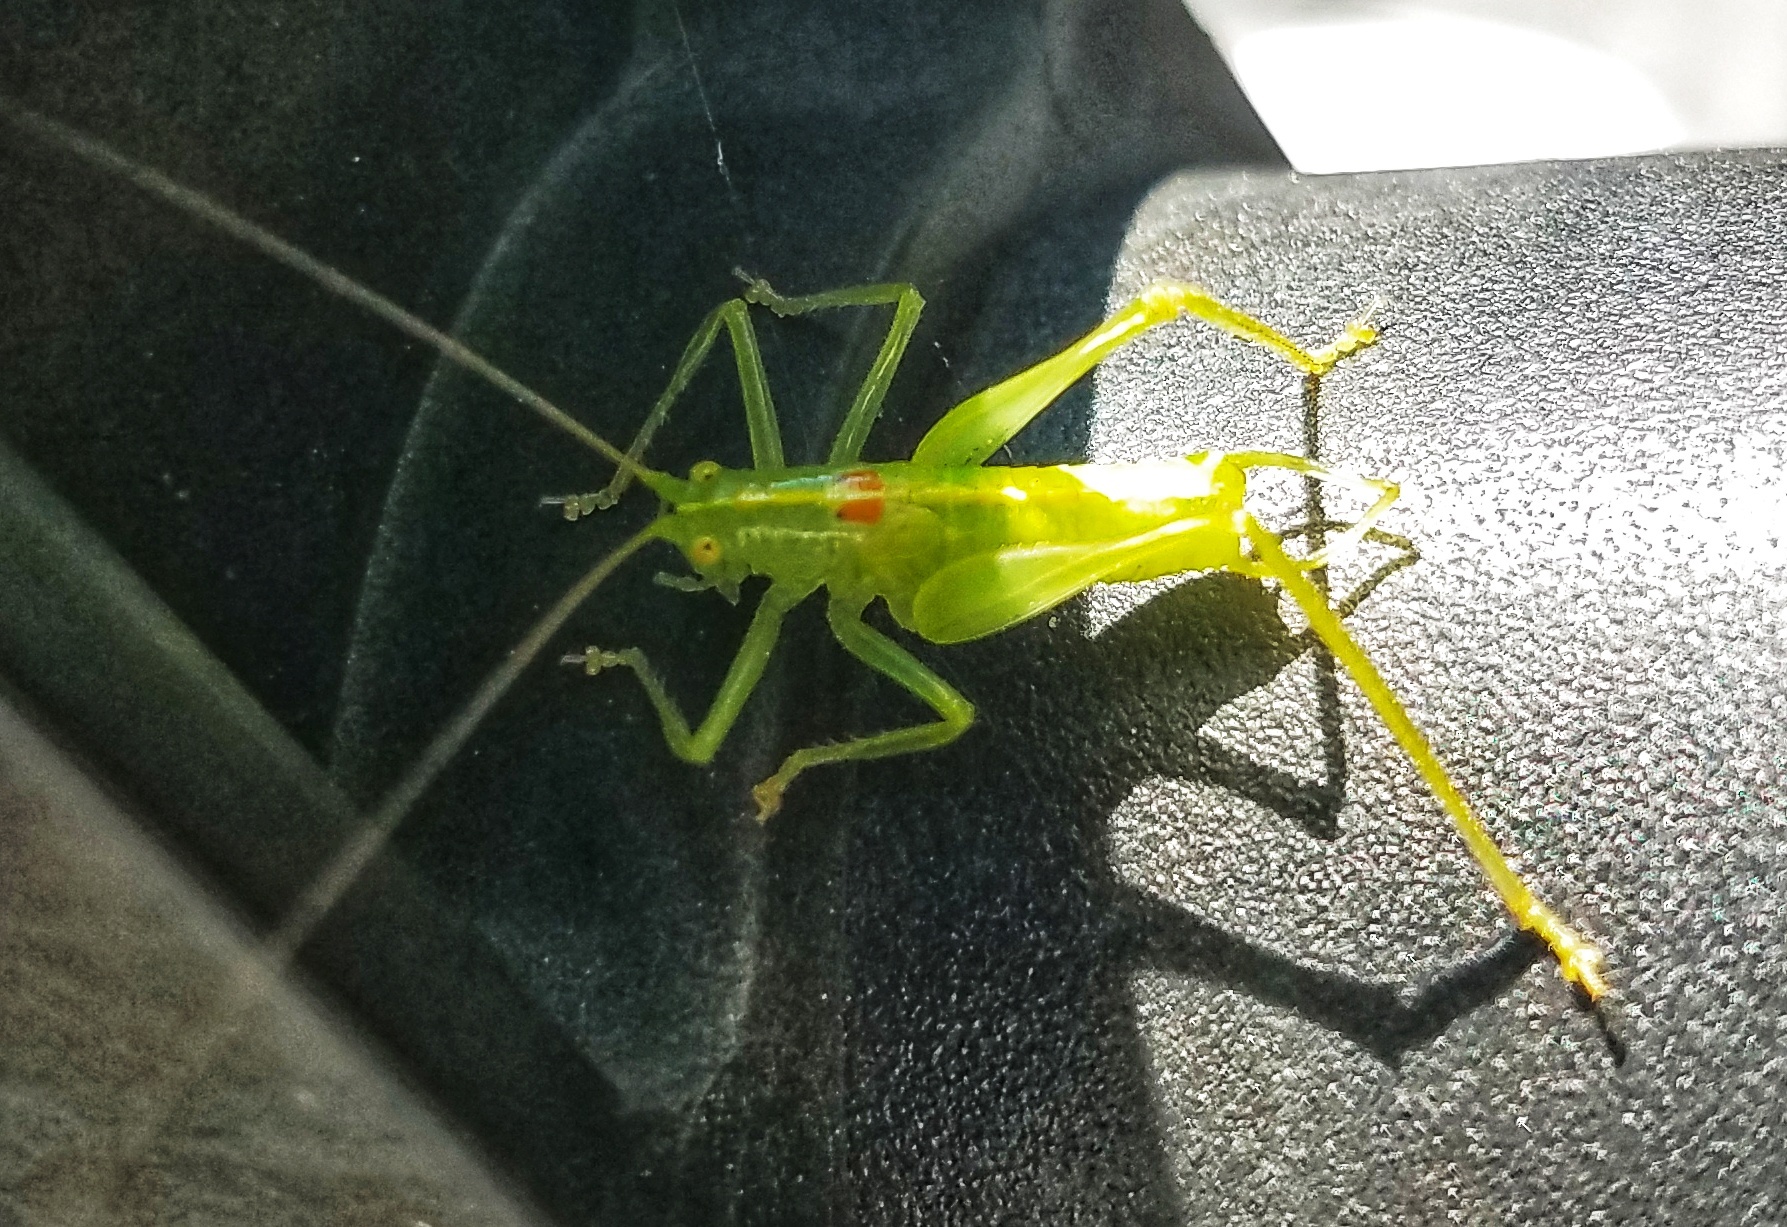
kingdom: Animalia
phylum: Arthropoda
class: Insecta
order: Orthoptera
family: Tettigoniidae
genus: Meconema
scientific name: Meconema meridionale
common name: Southern oak bush-cricket
